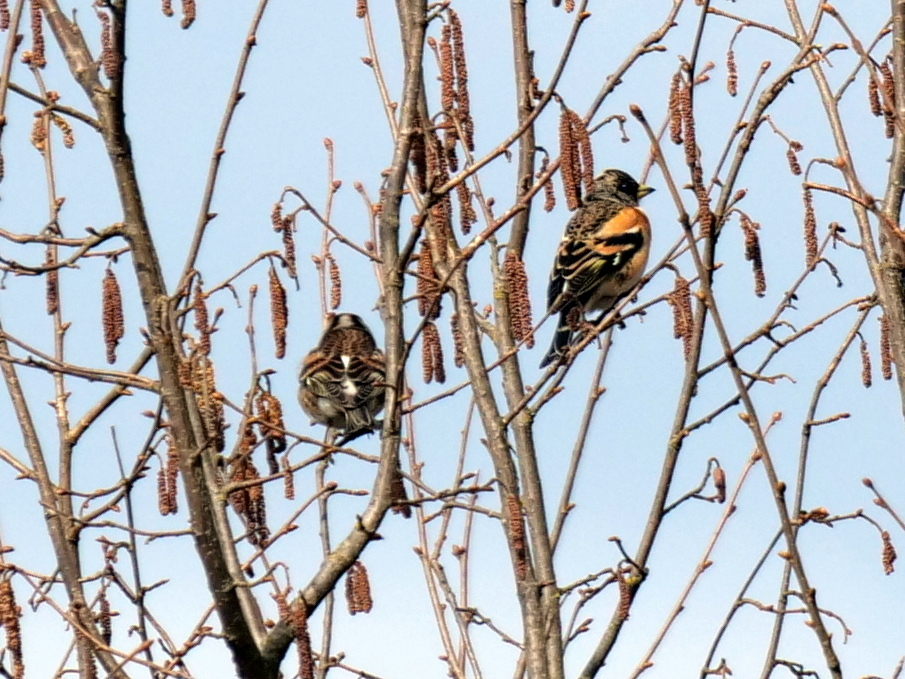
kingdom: Animalia
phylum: Chordata
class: Aves
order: Passeriformes
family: Fringillidae
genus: Fringilla
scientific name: Fringilla montifringilla
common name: Brambling
